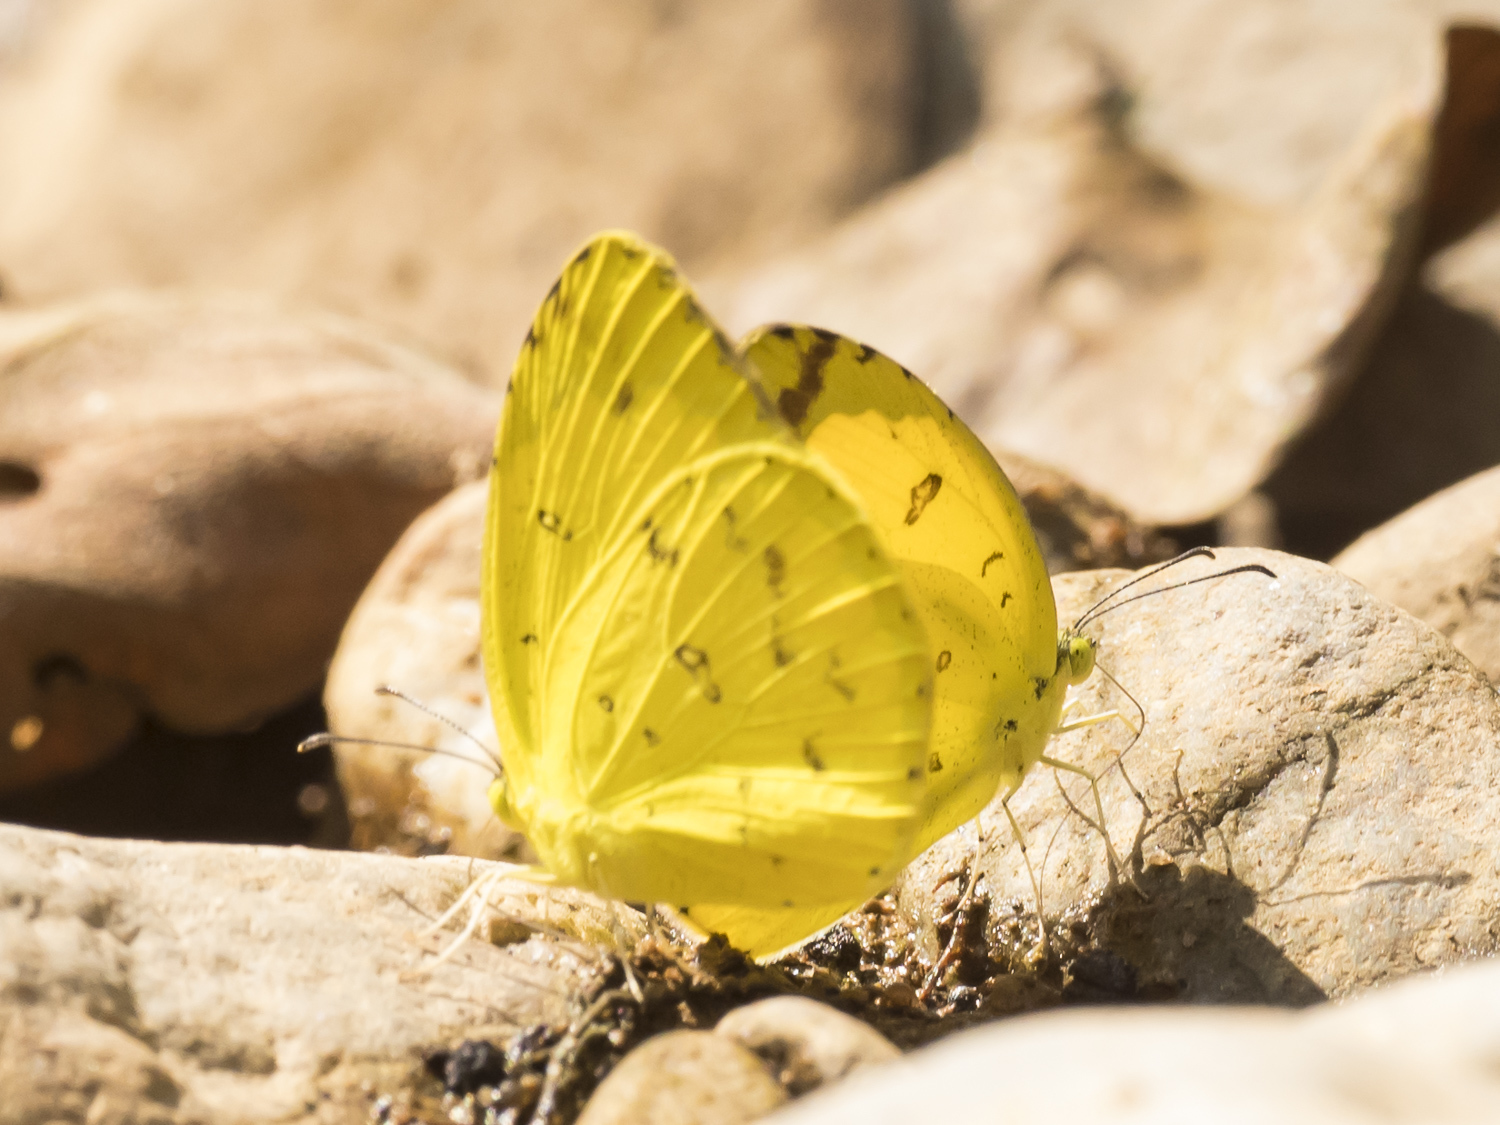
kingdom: Animalia
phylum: Arthropoda
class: Insecta
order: Lepidoptera
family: Pieridae
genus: Eurema
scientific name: Eurema hecabe
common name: Pale grass yellow
